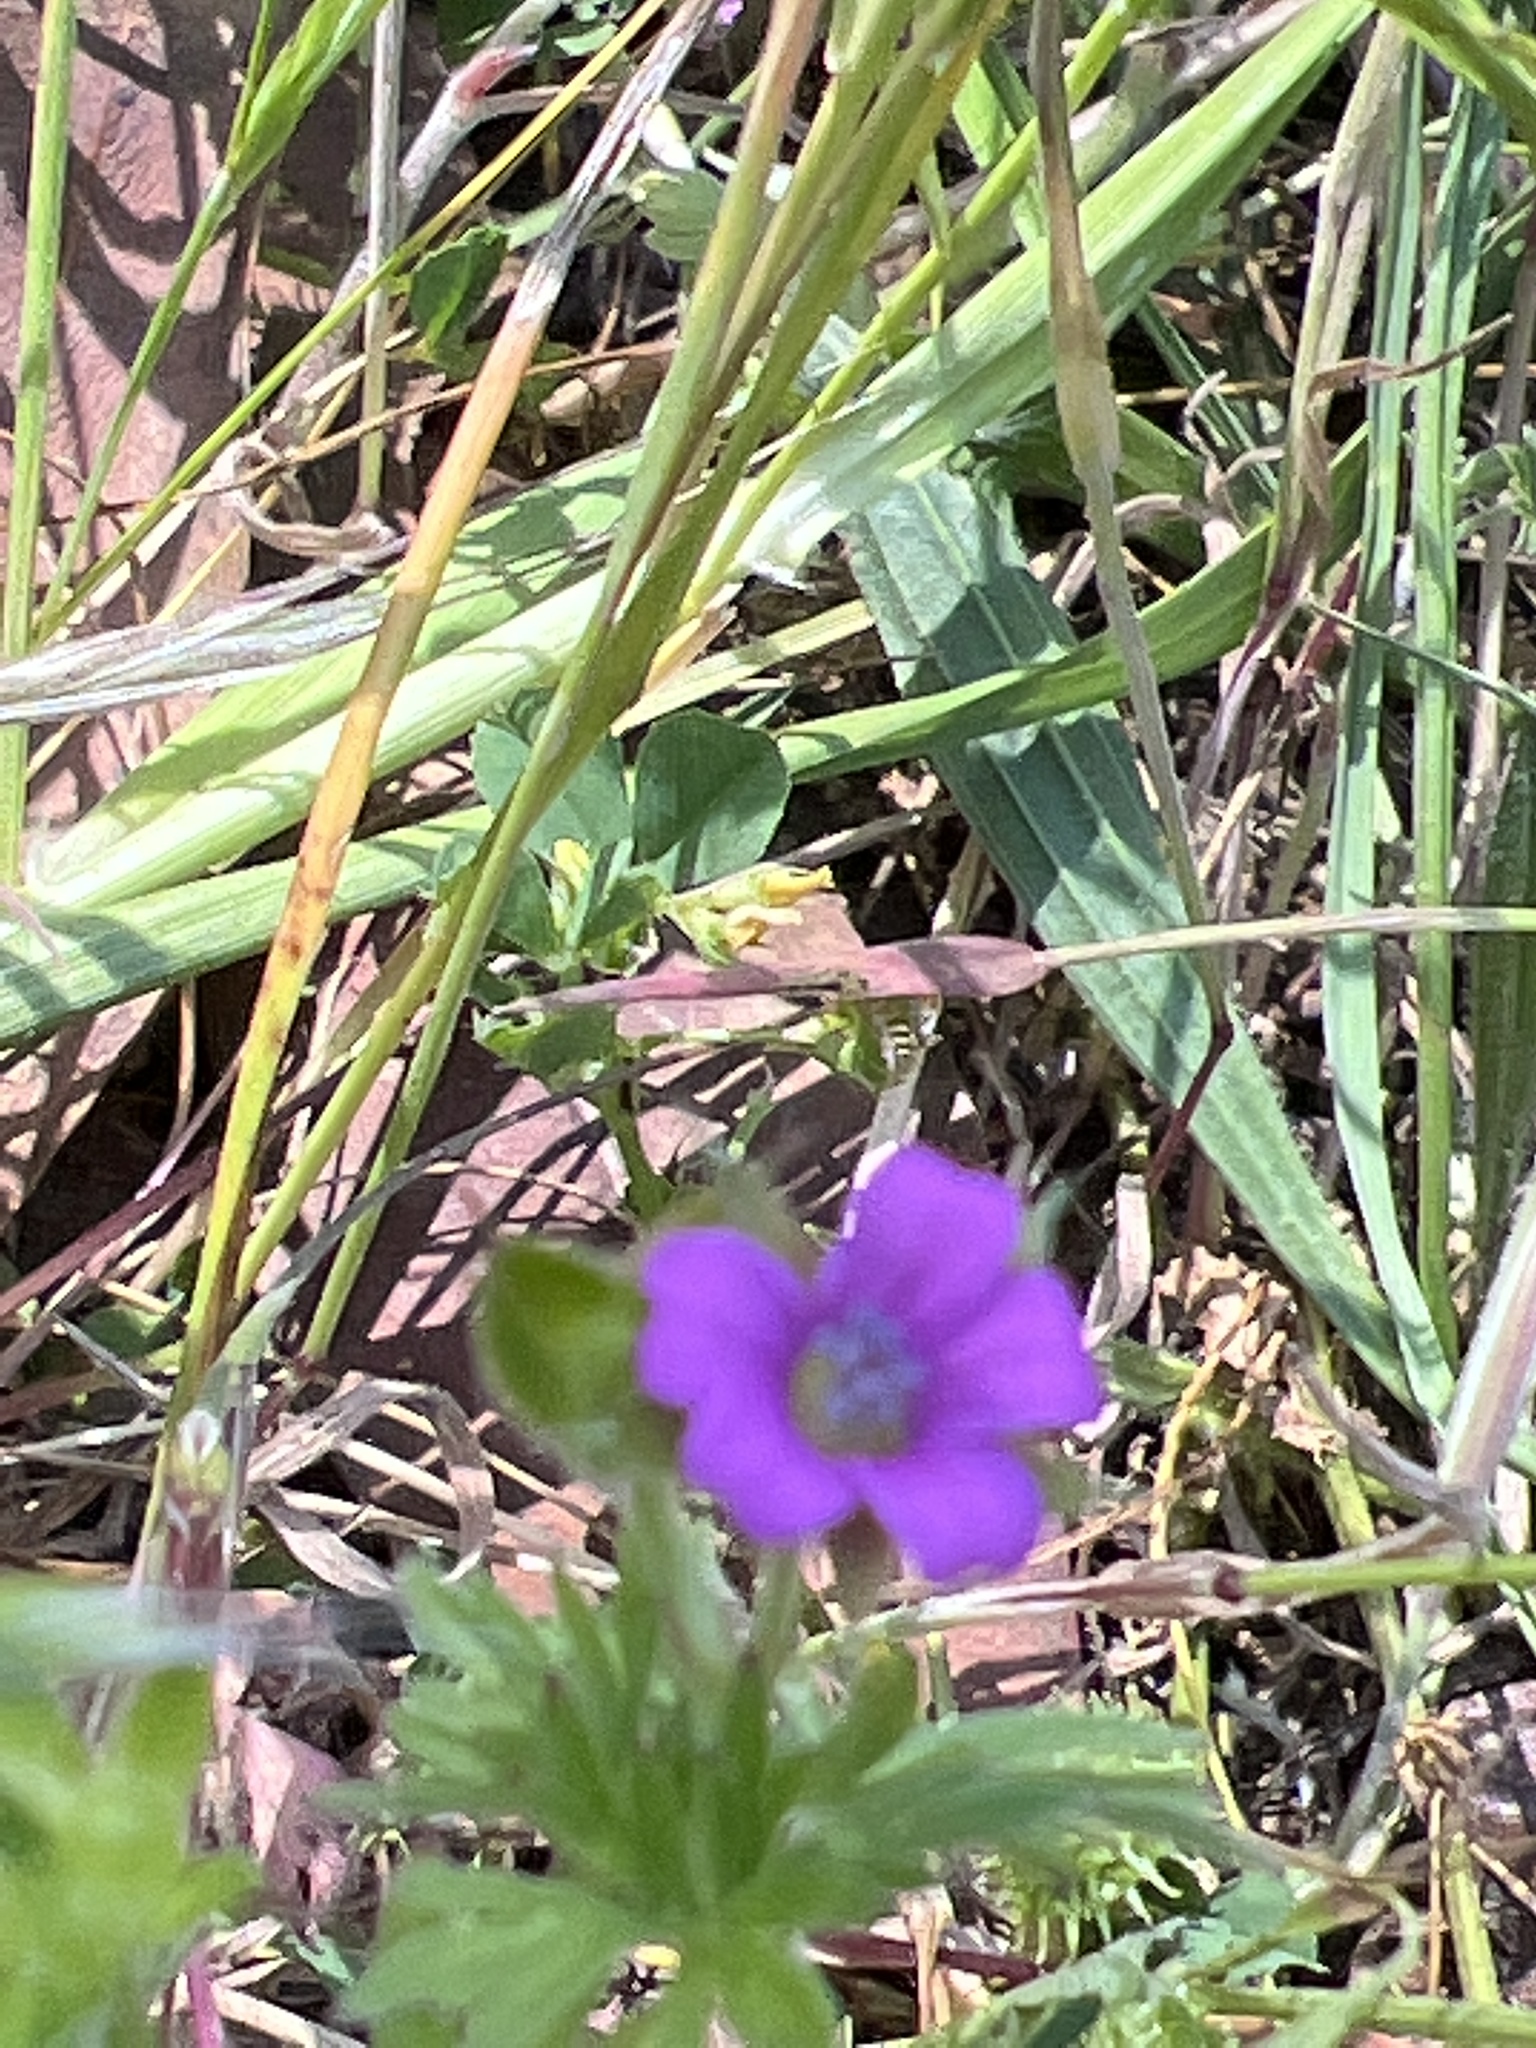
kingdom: Plantae
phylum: Tracheophyta
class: Magnoliopsida
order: Geraniales
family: Geraniaceae
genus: Geranium
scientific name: Geranium dissectum
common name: Cut-leaved crane's-bill
